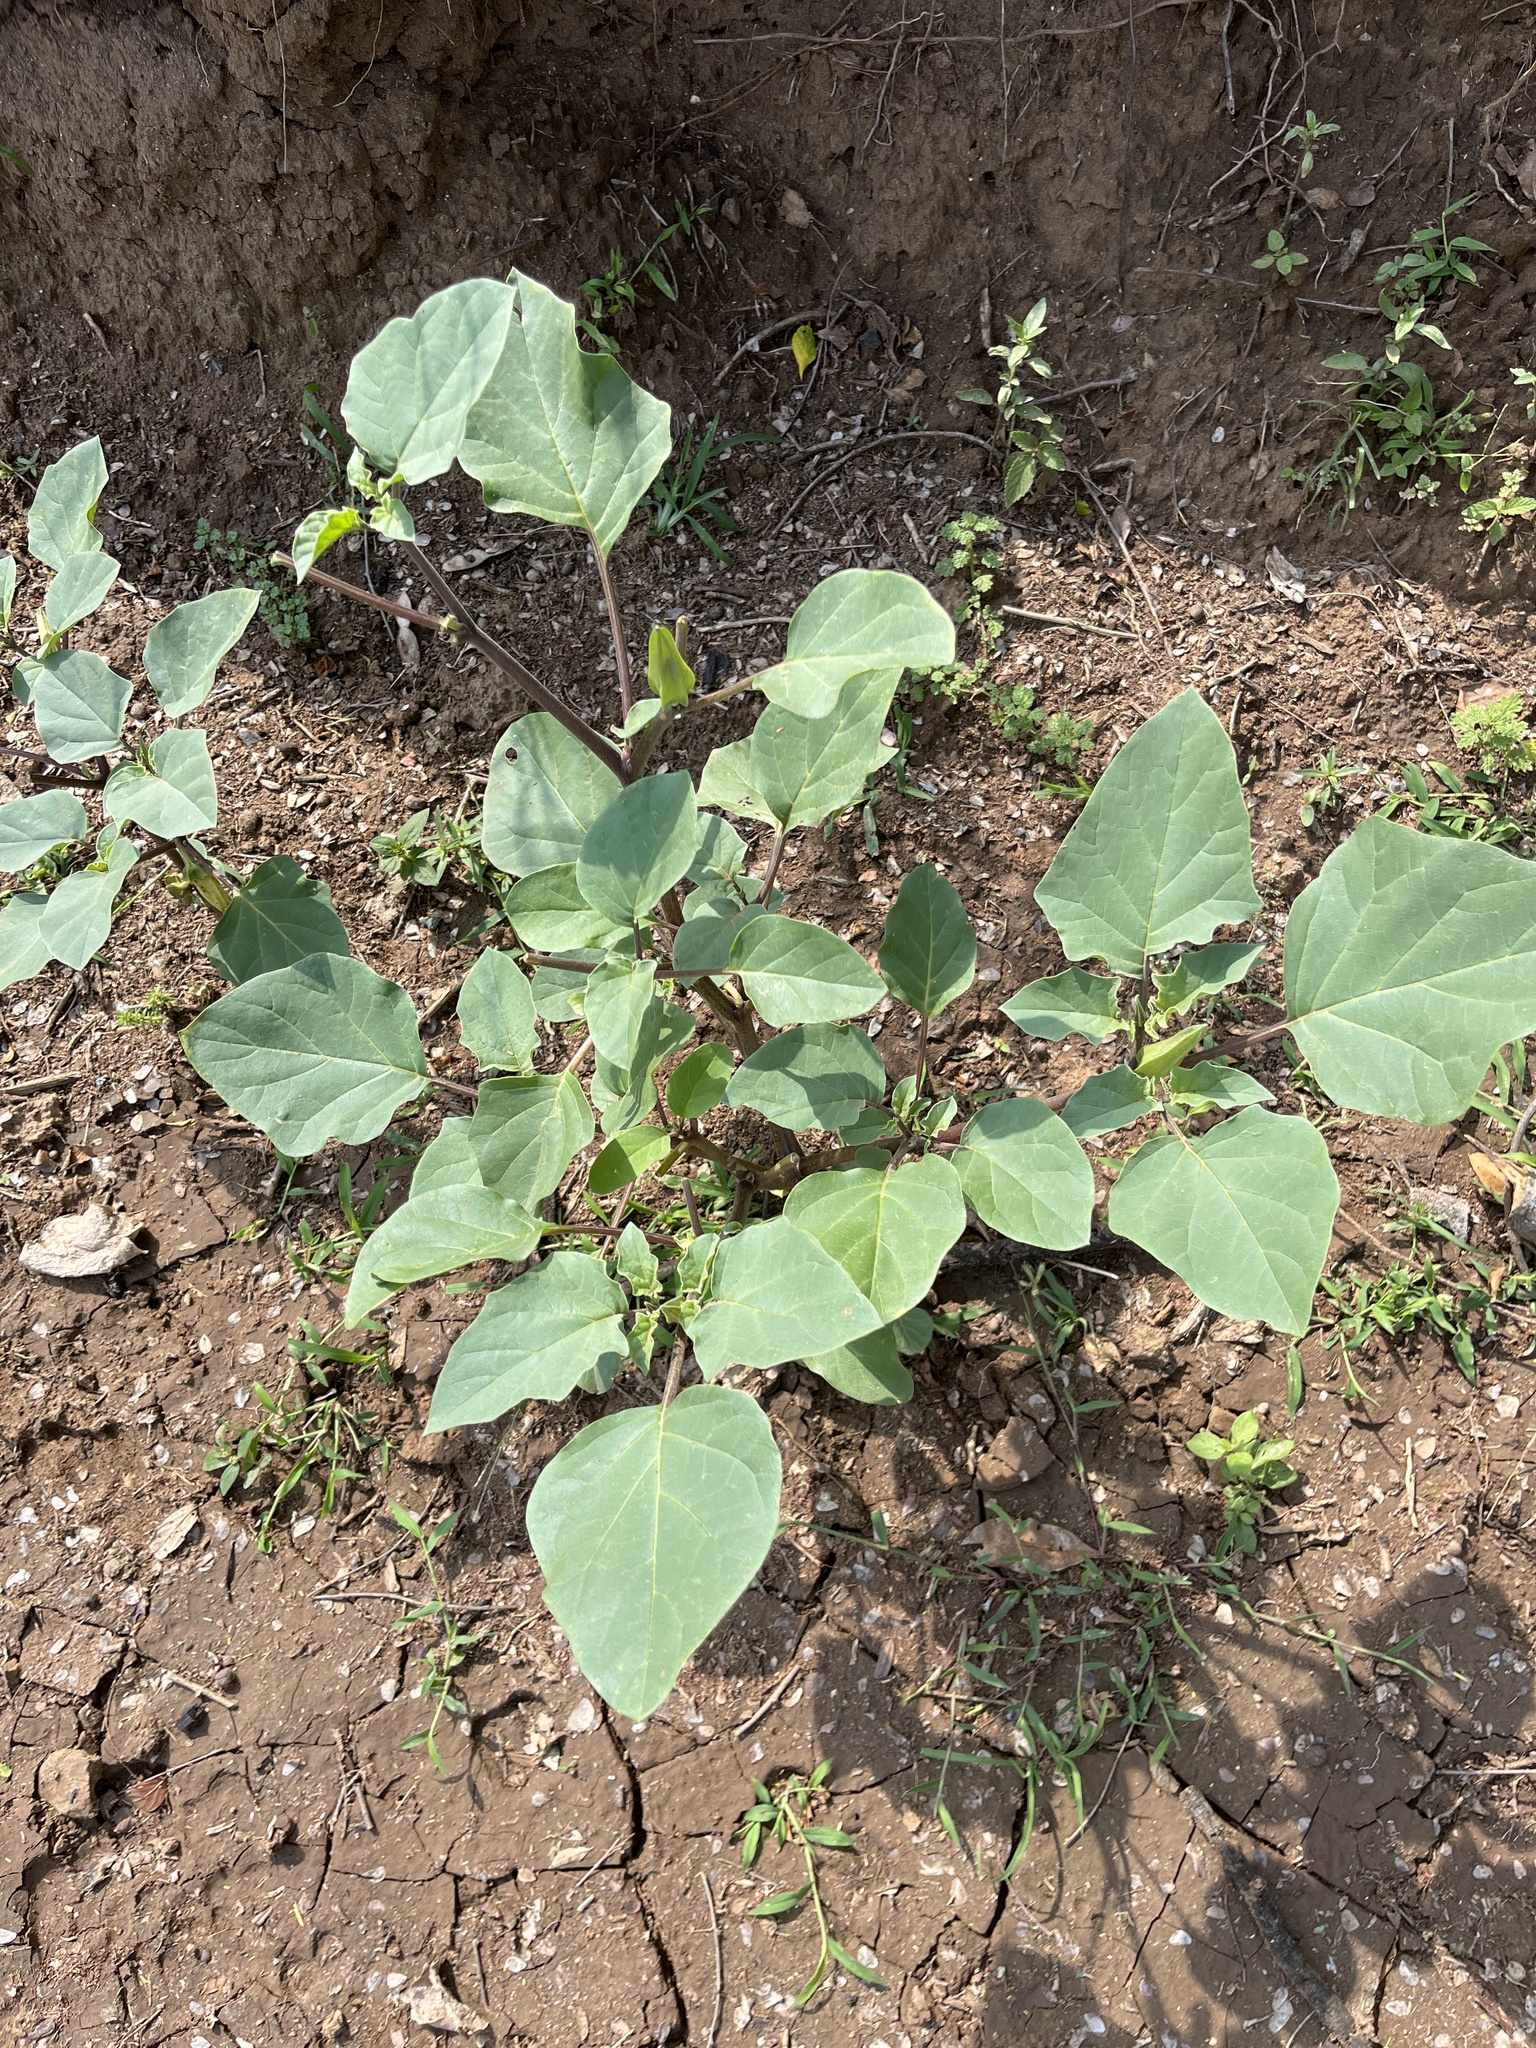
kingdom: Plantae
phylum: Tracheophyta
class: Magnoliopsida
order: Solanales
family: Solanaceae
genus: Datura
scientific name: Datura innoxia
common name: Downy thorn-apple
